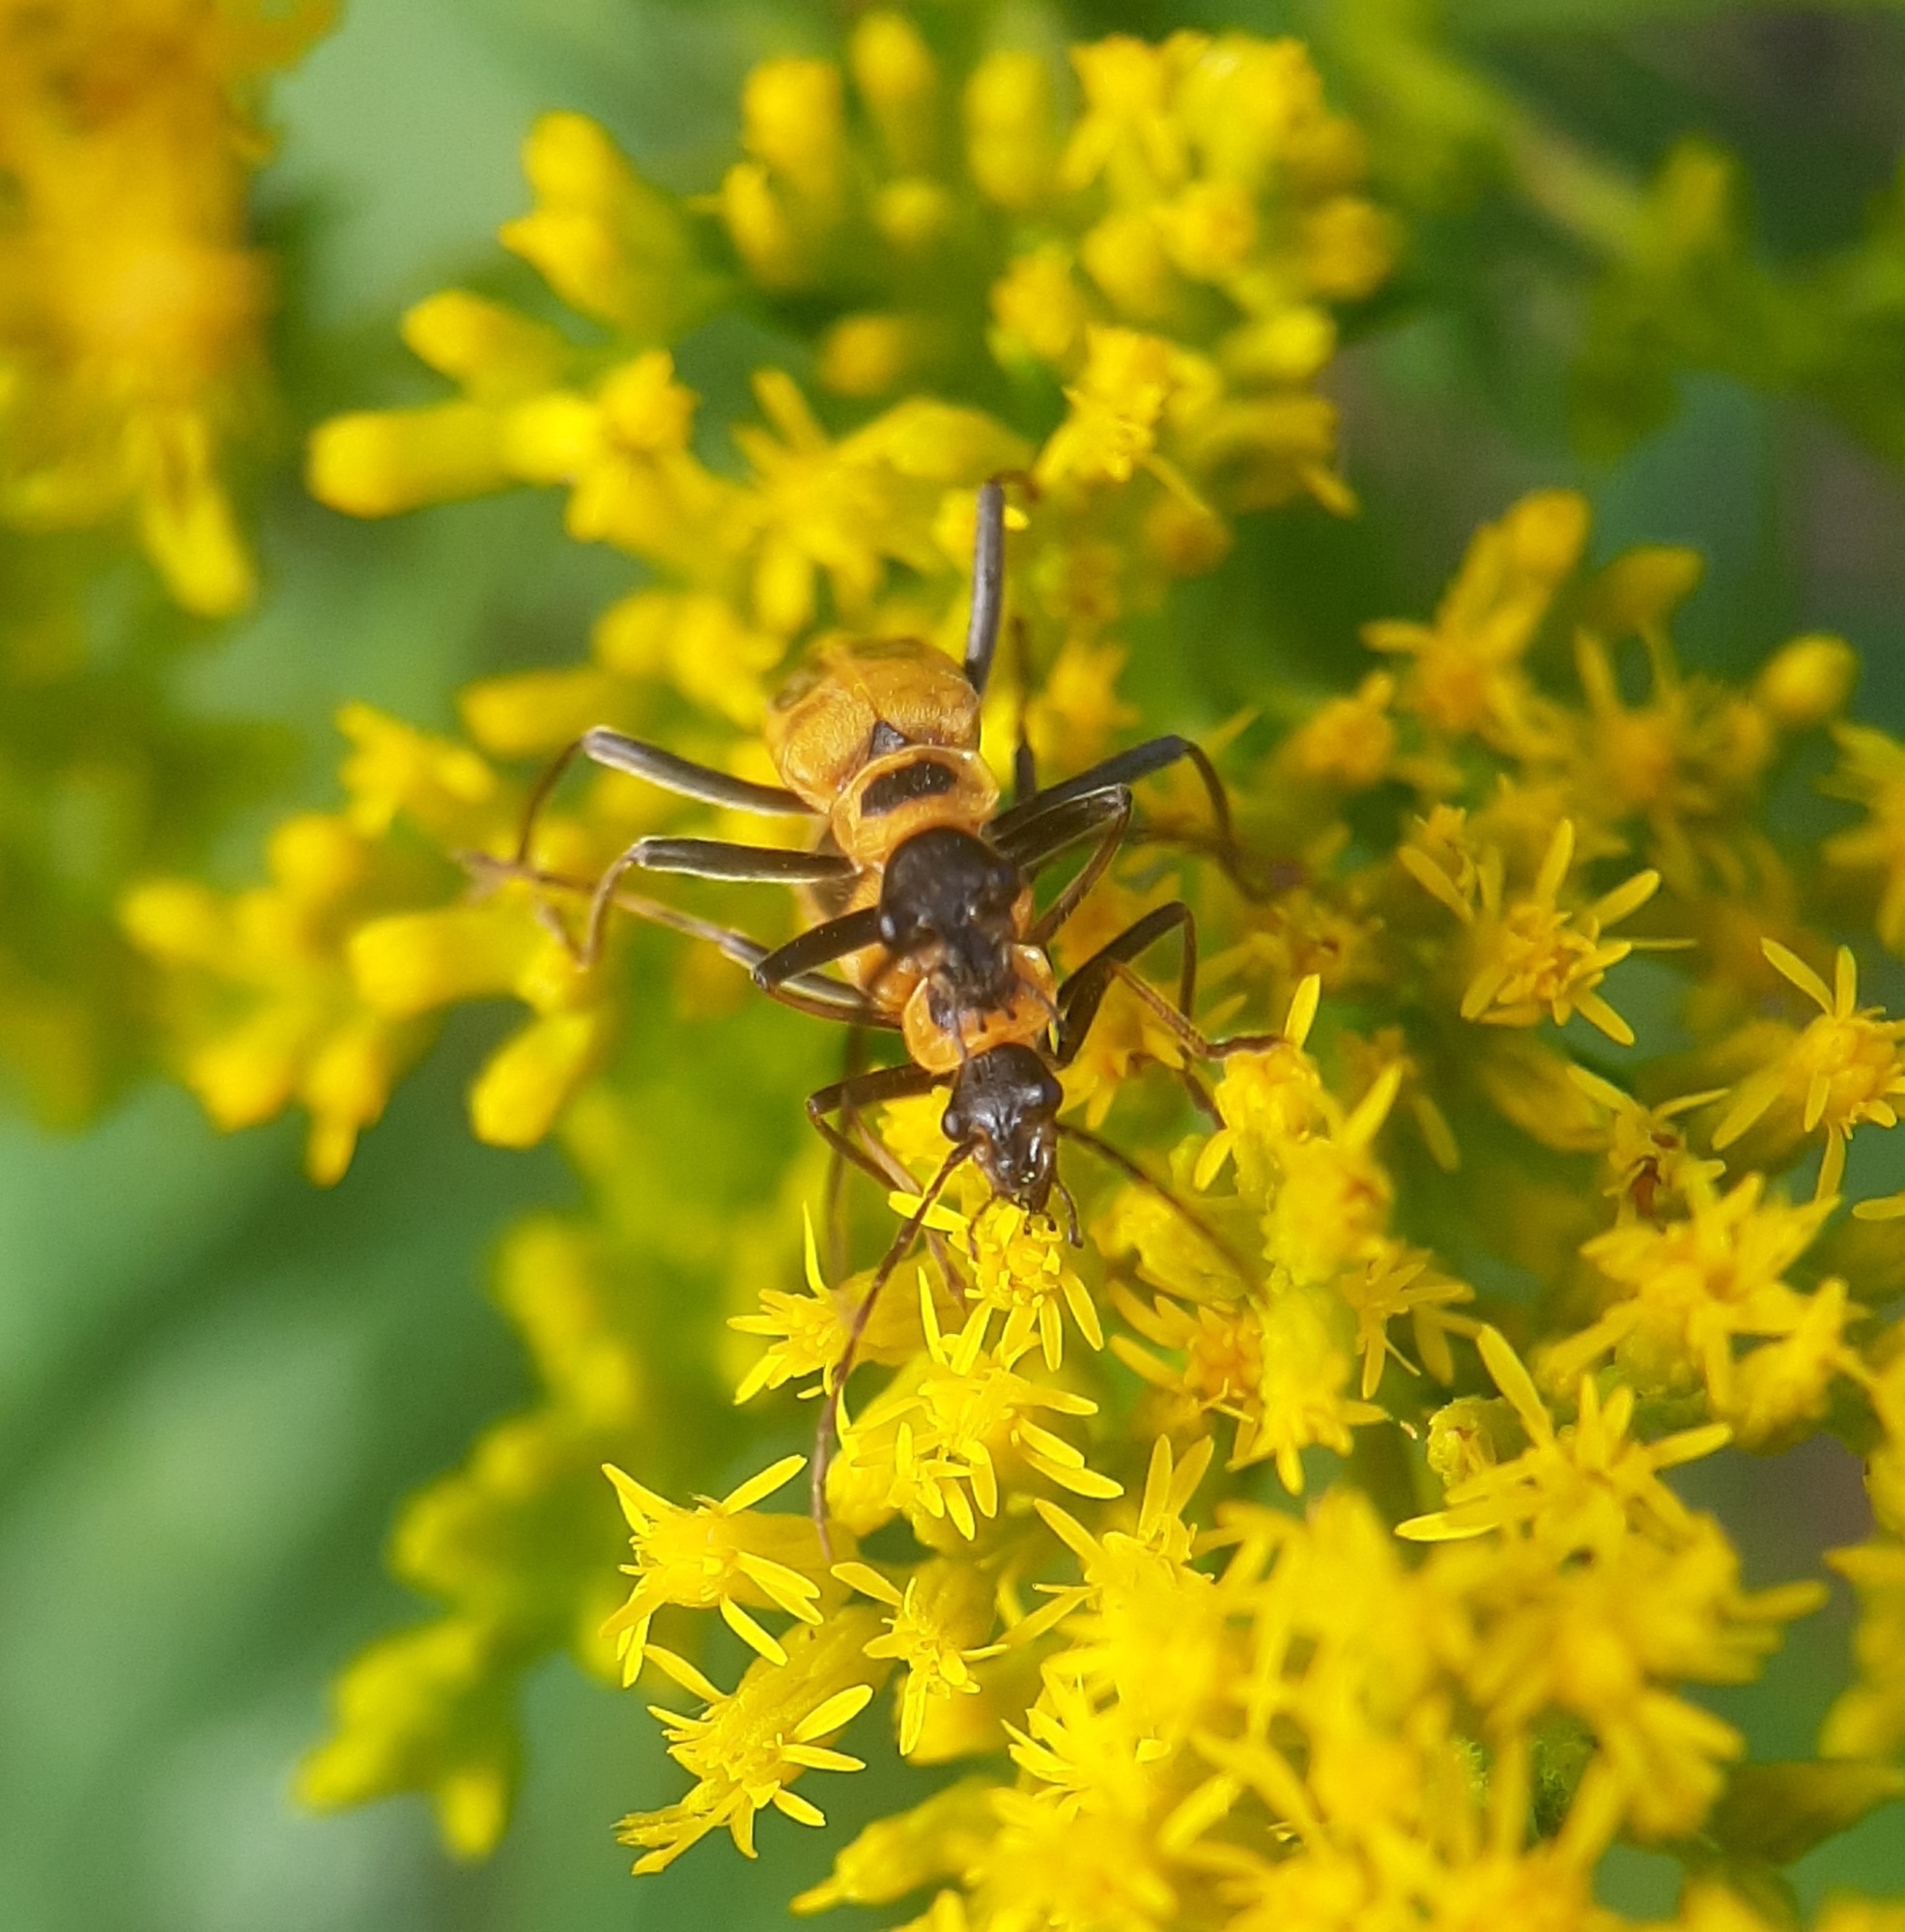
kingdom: Animalia
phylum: Arthropoda
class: Insecta
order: Coleoptera
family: Cantharidae
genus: Chauliognathus
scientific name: Chauliognathus pensylvanicus
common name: Goldenrod soldier beetle
